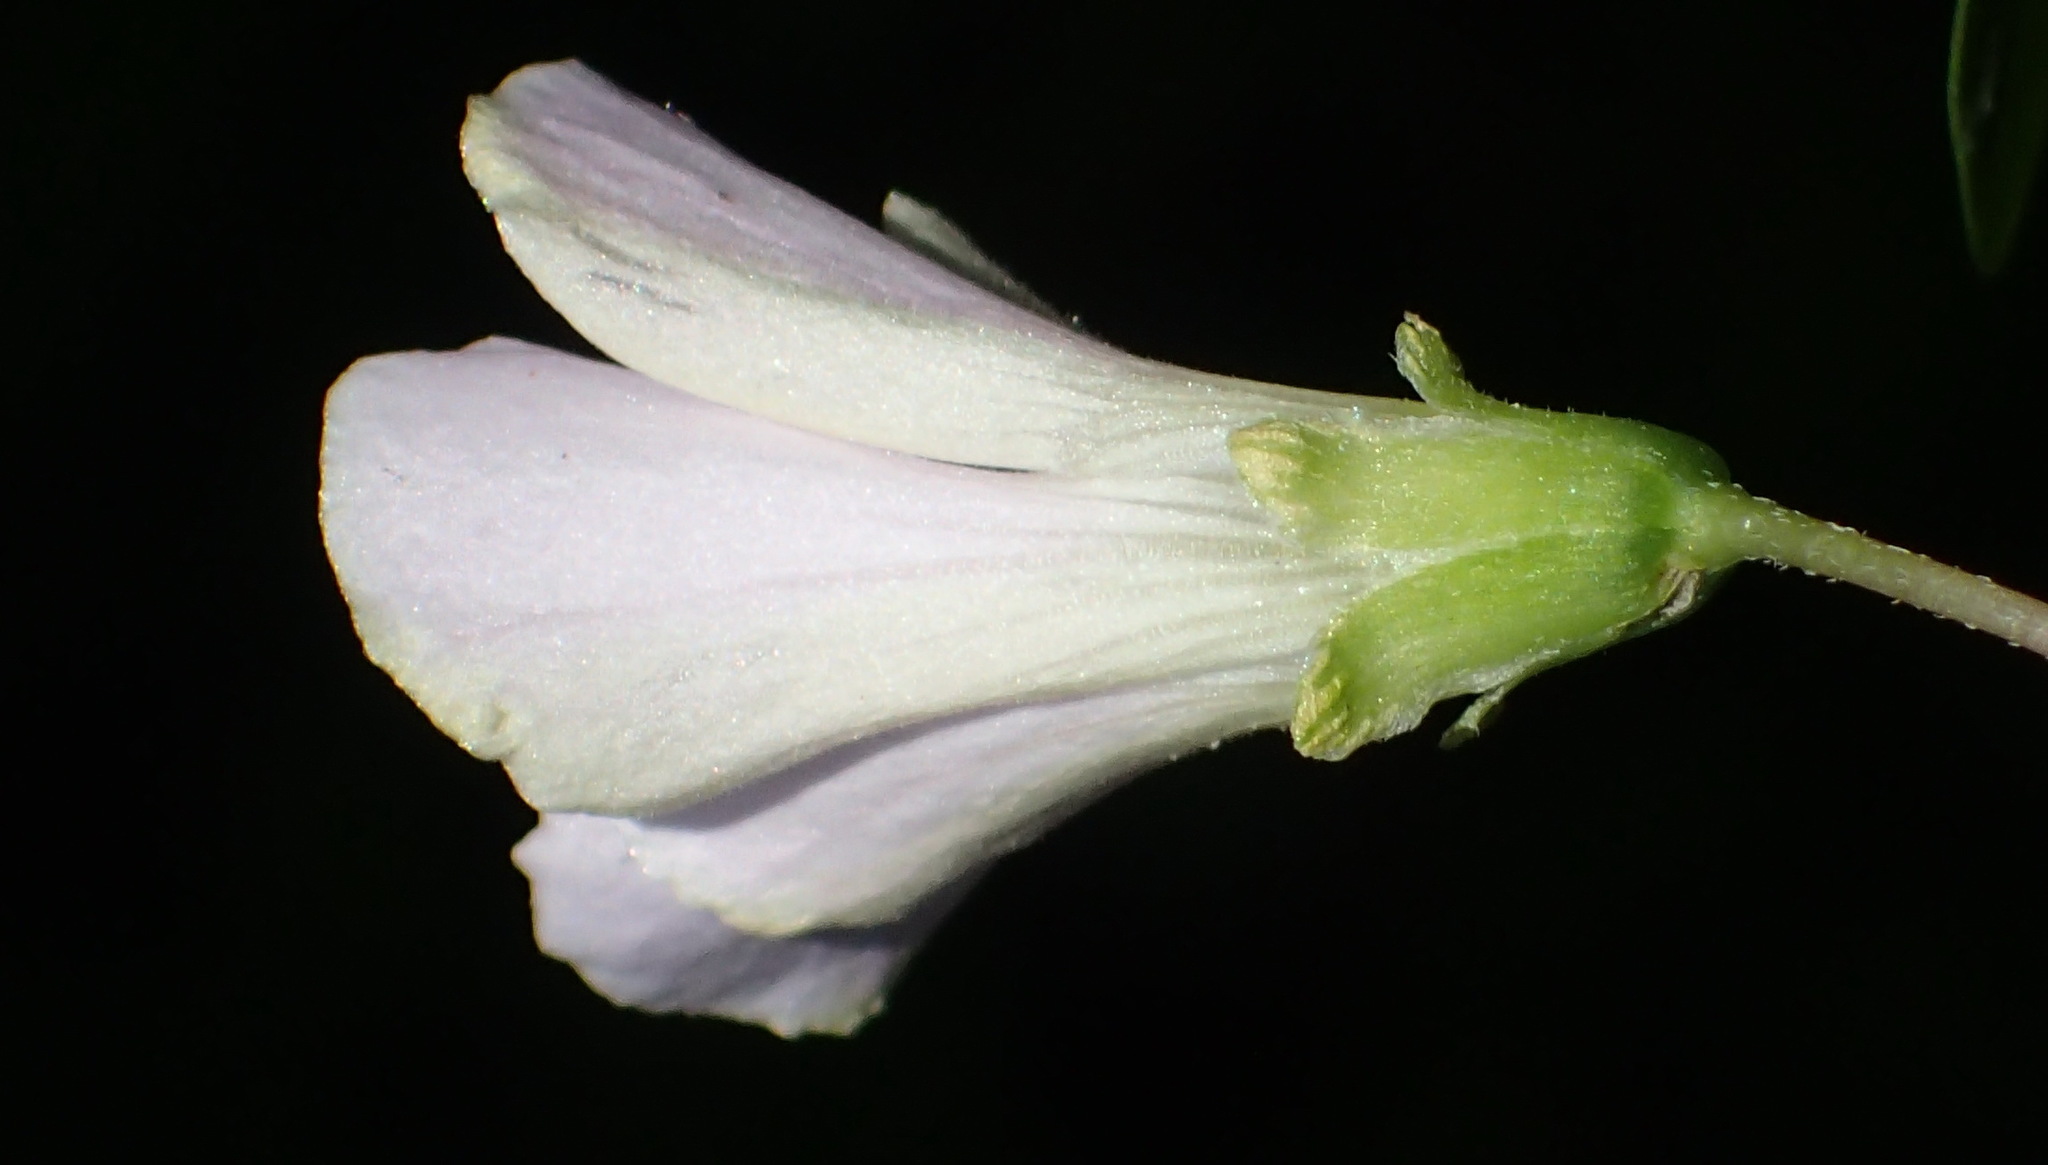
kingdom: Plantae
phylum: Tracheophyta
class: Magnoliopsida
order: Oxalidales
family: Oxalidaceae
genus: Oxalis
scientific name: Oxalis incarnata
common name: Pale pink-sorrel
